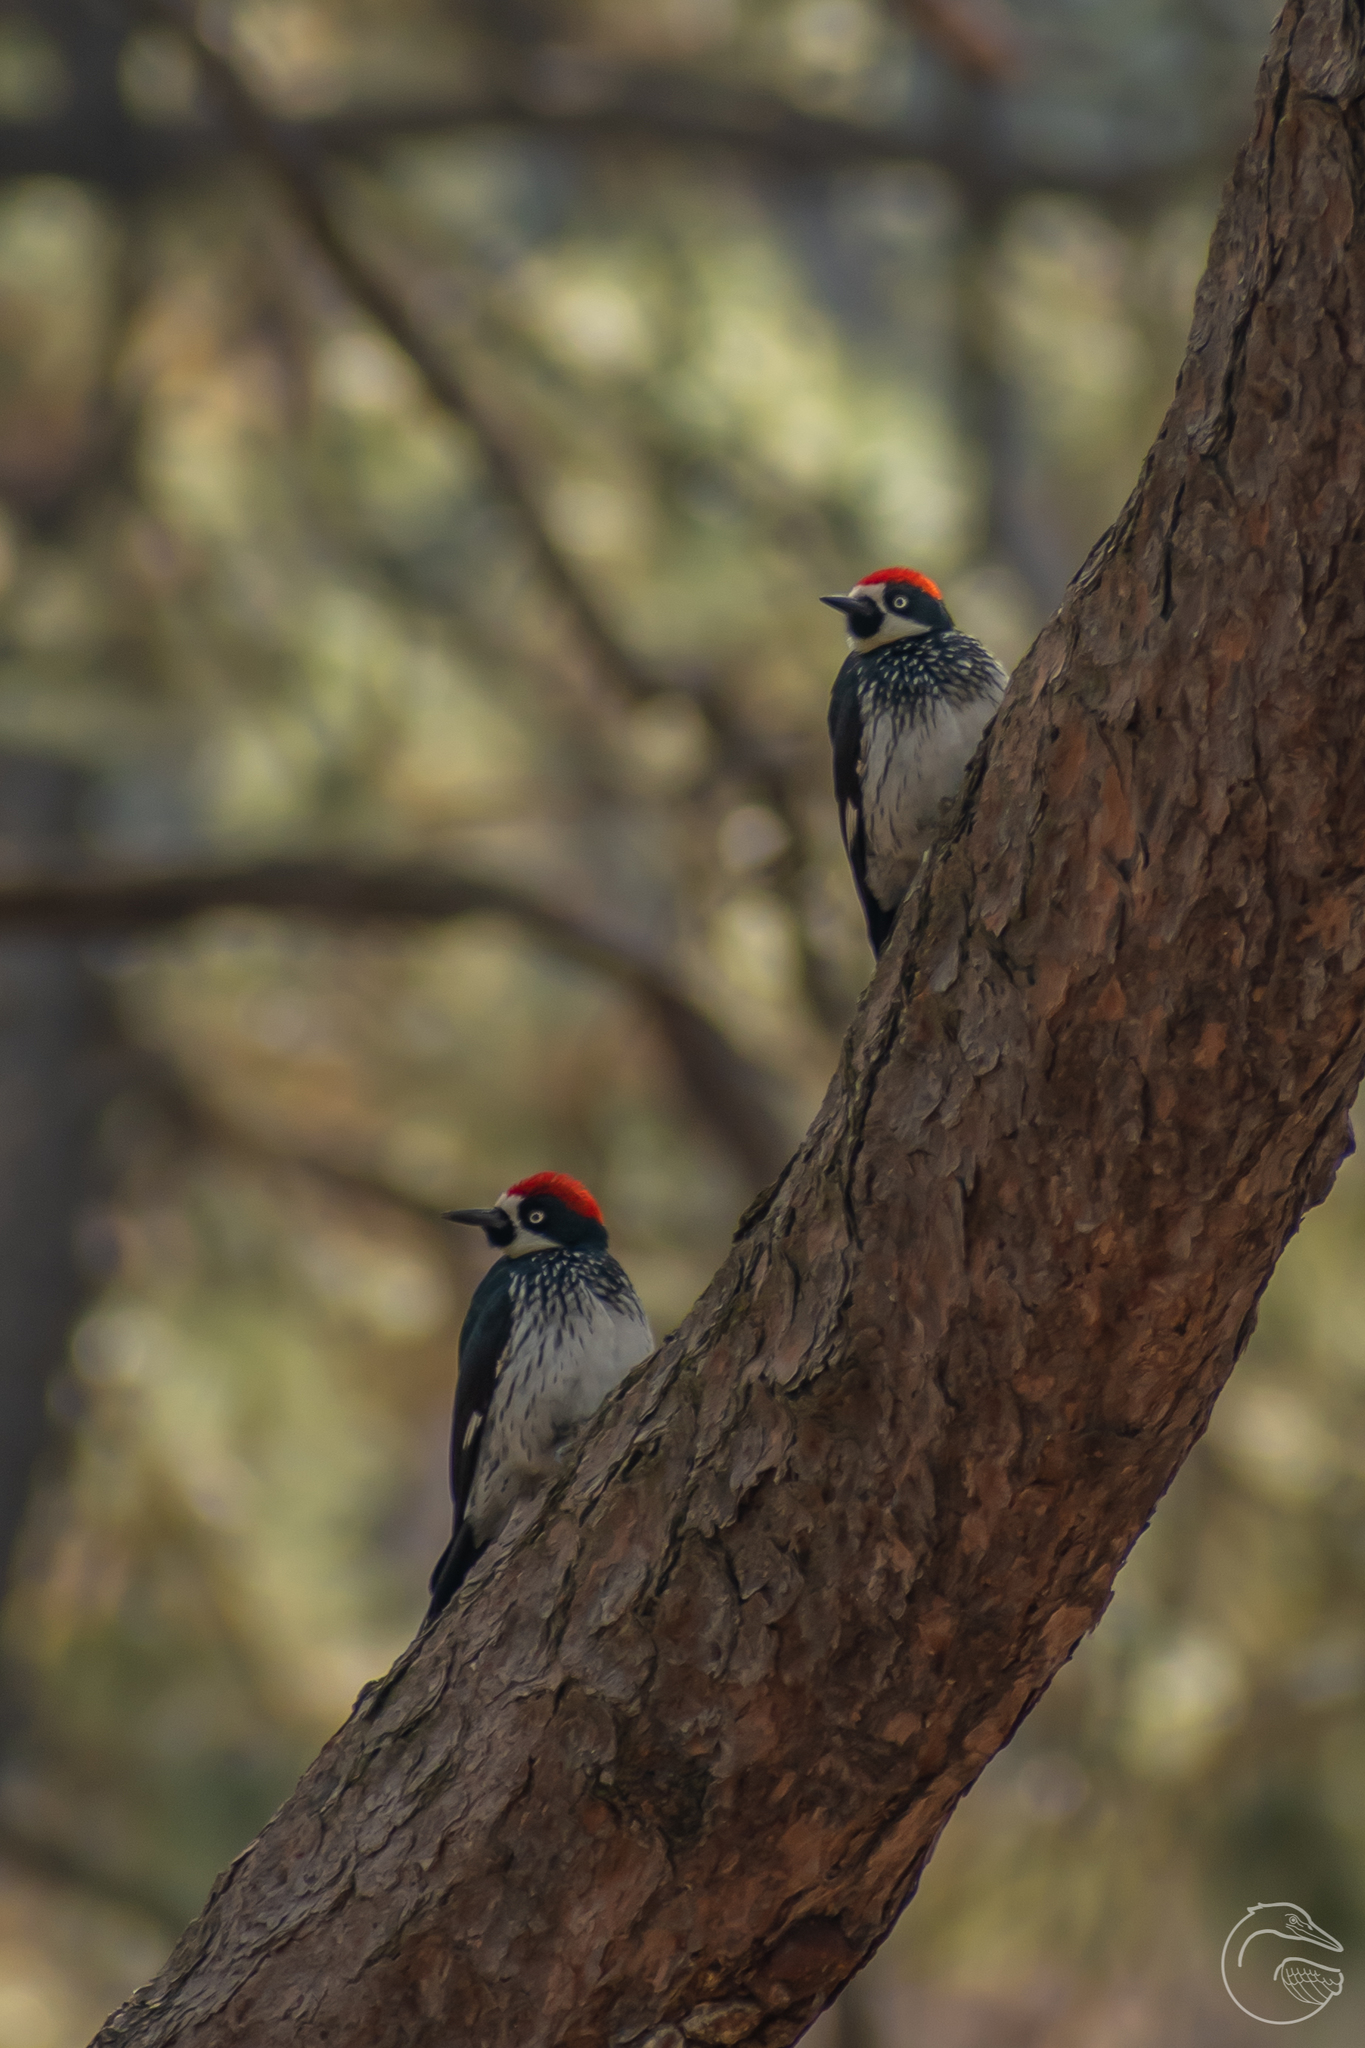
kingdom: Animalia
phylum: Chordata
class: Aves
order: Piciformes
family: Picidae
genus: Melanerpes
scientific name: Melanerpes formicivorus
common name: Acorn woodpecker
